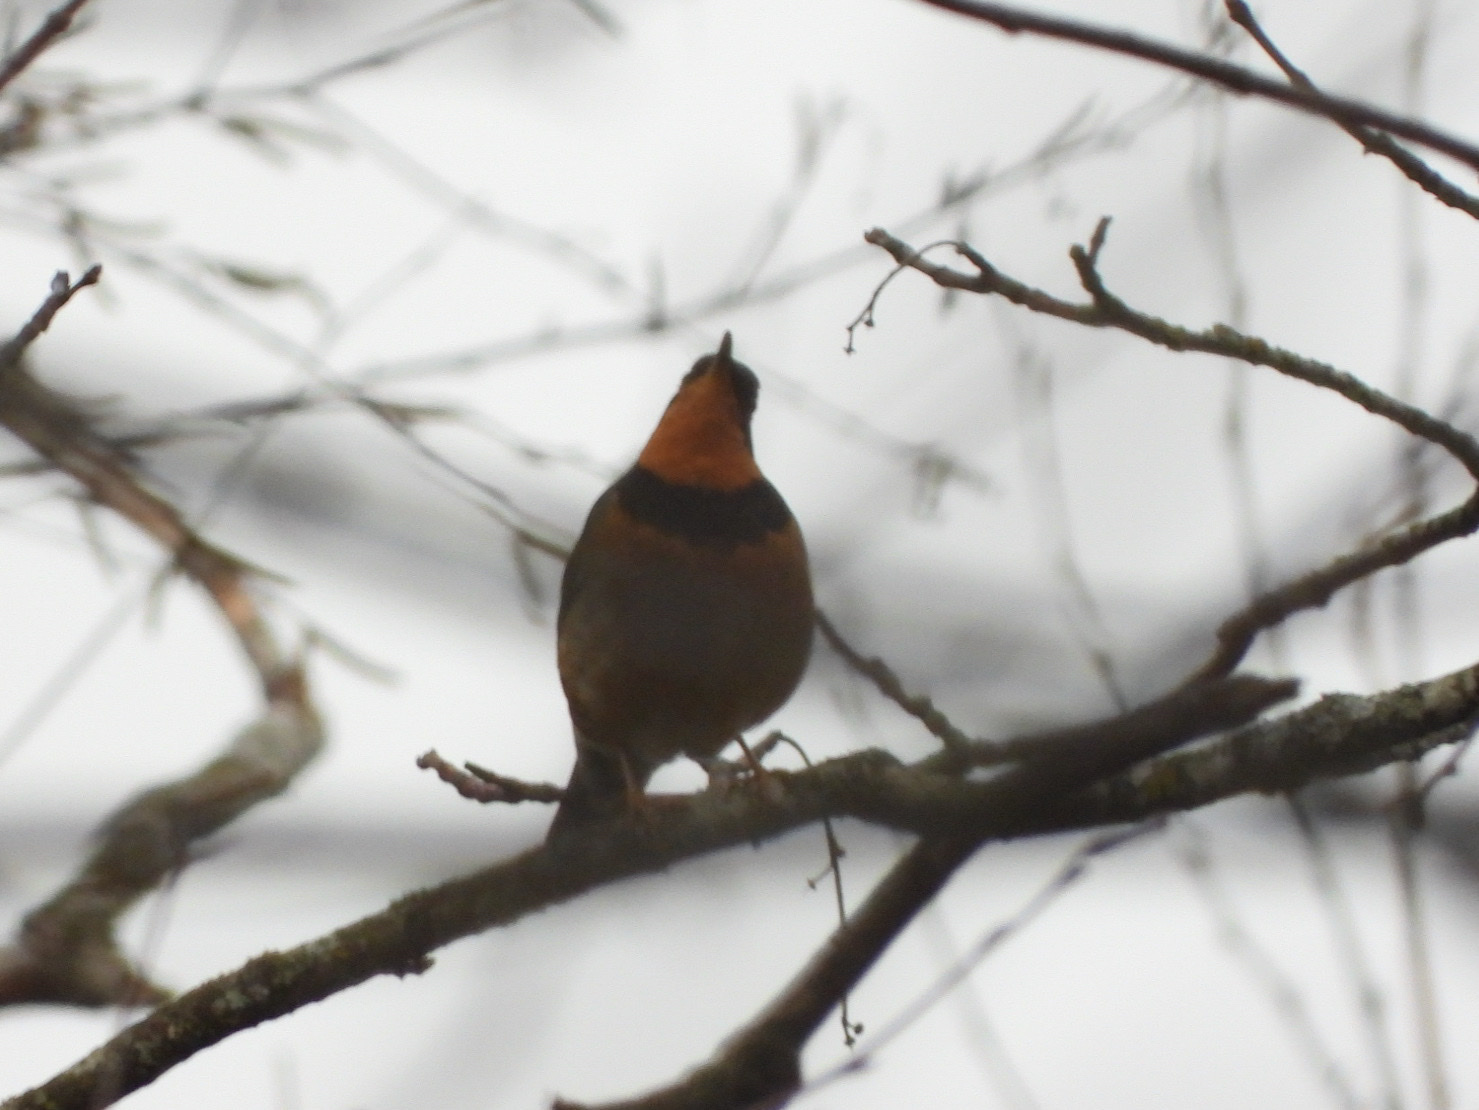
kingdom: Animalia
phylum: Chordata
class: Aves
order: Passeriformes
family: Turdidae
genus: Ixoreus
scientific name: Ixoreus naevius
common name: Varied thrush
